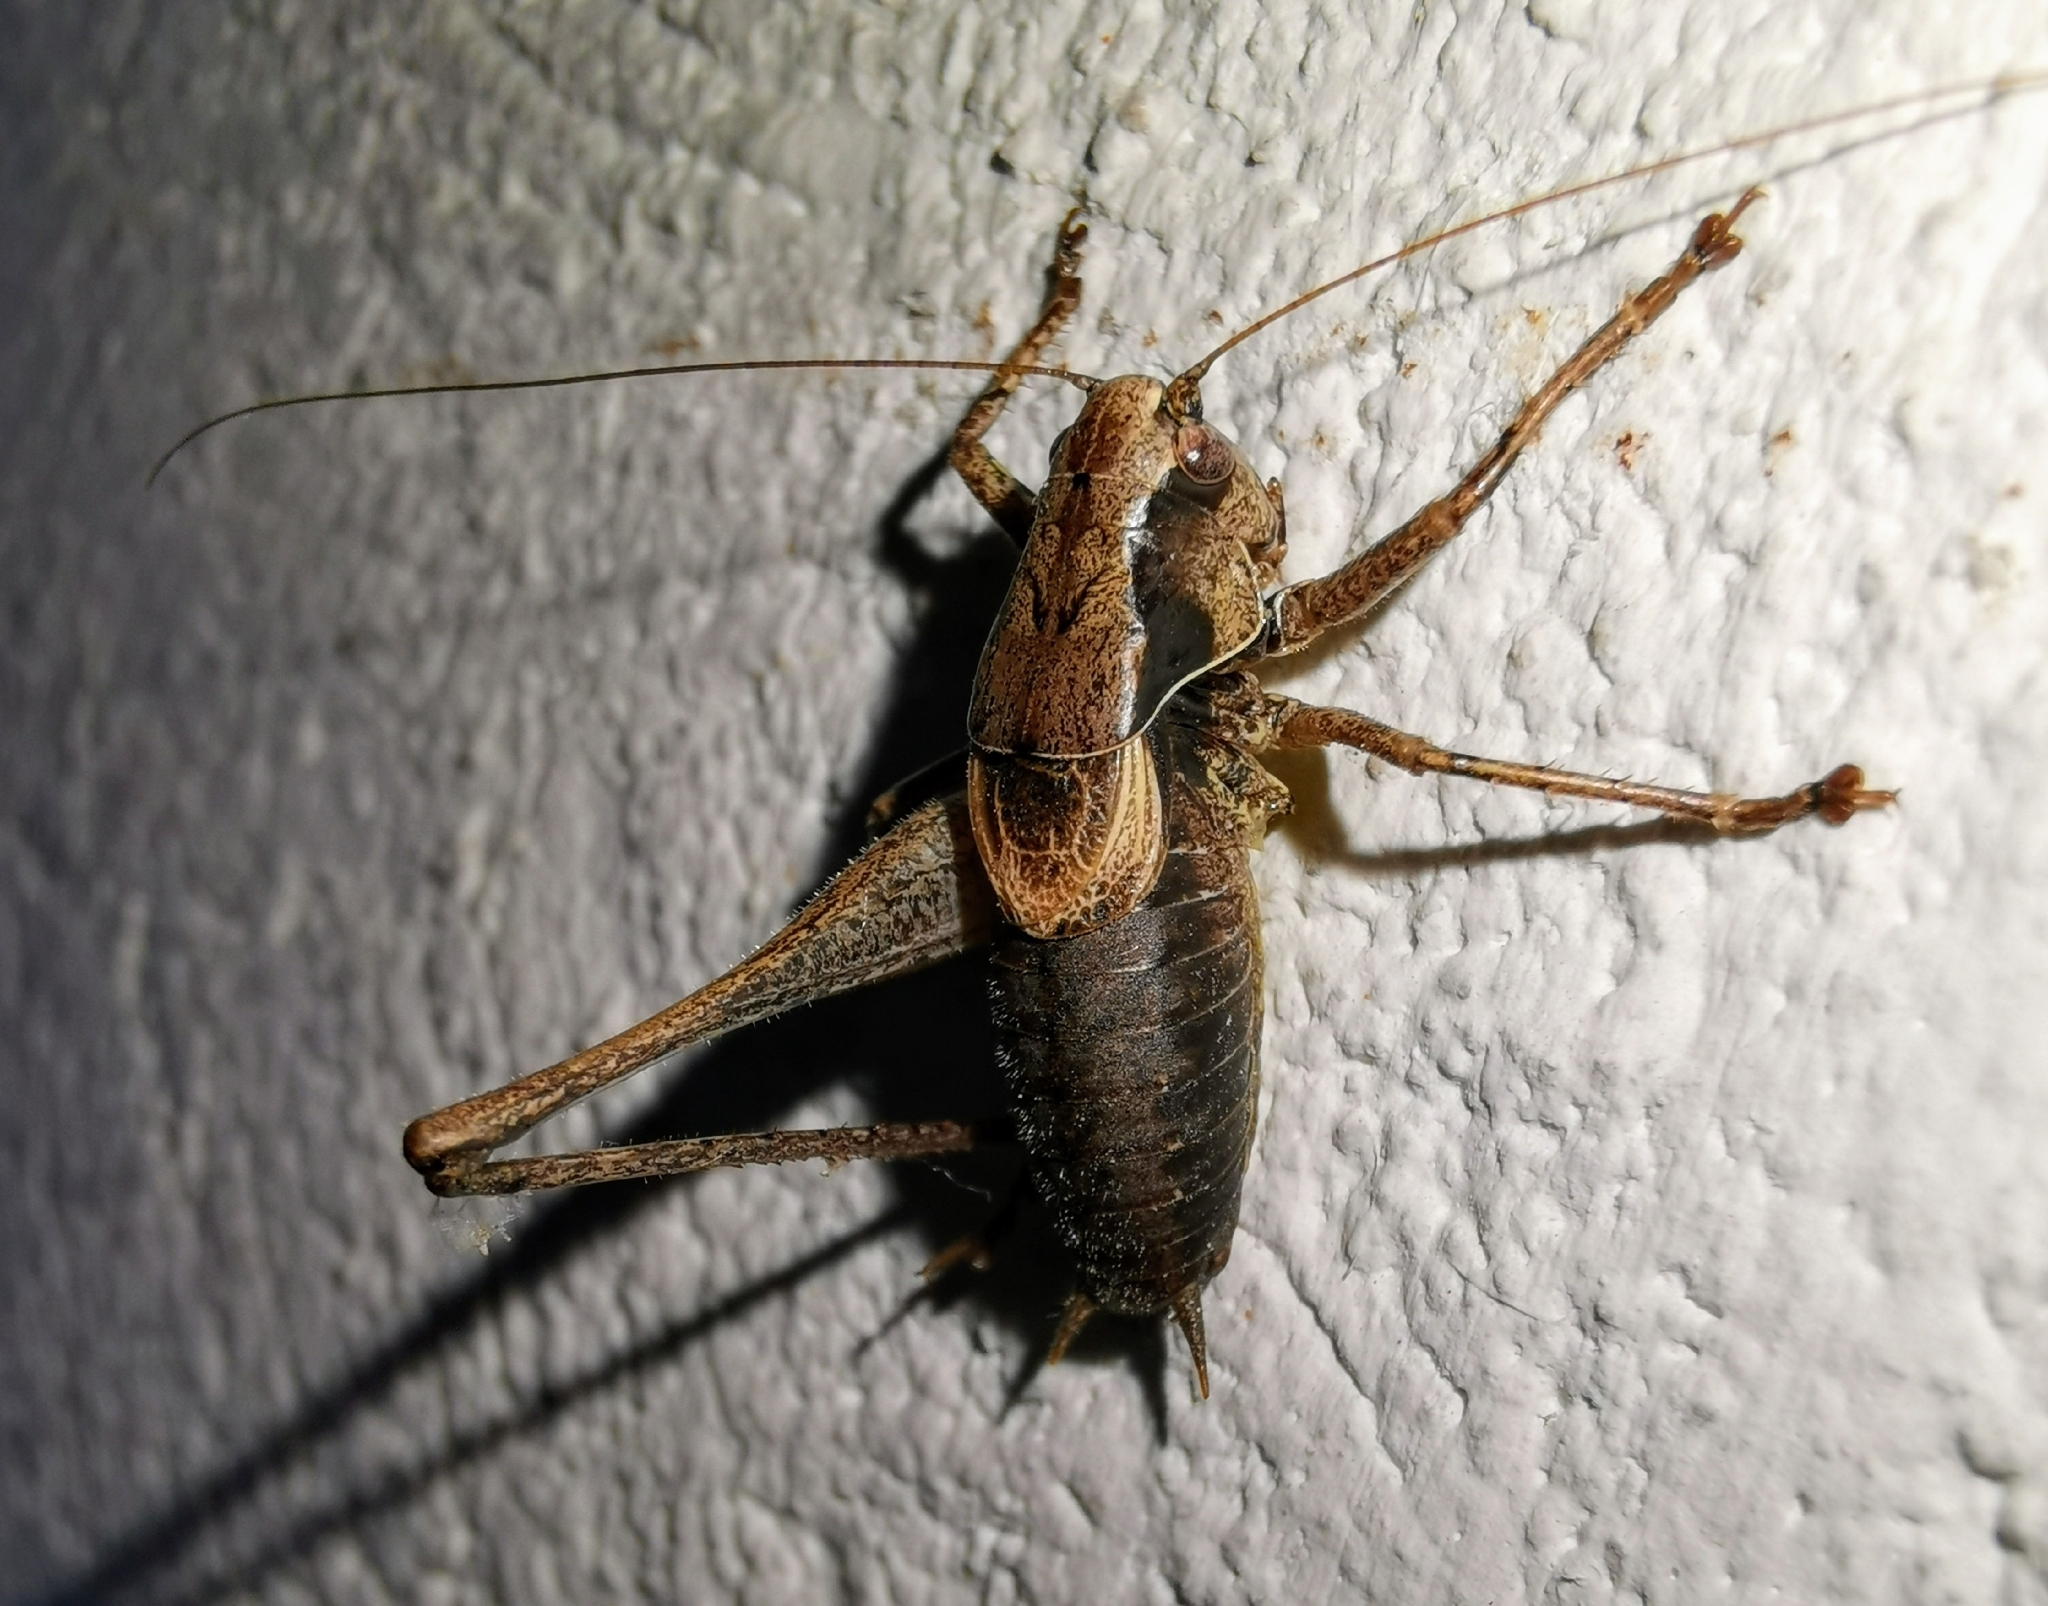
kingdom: Animalia
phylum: Arthropoda
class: Insecta
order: Orthoptera
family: Tettigoniidae
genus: Pholidoptera
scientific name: Pholidoptera griseoaptera
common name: Dark bush-cricket
